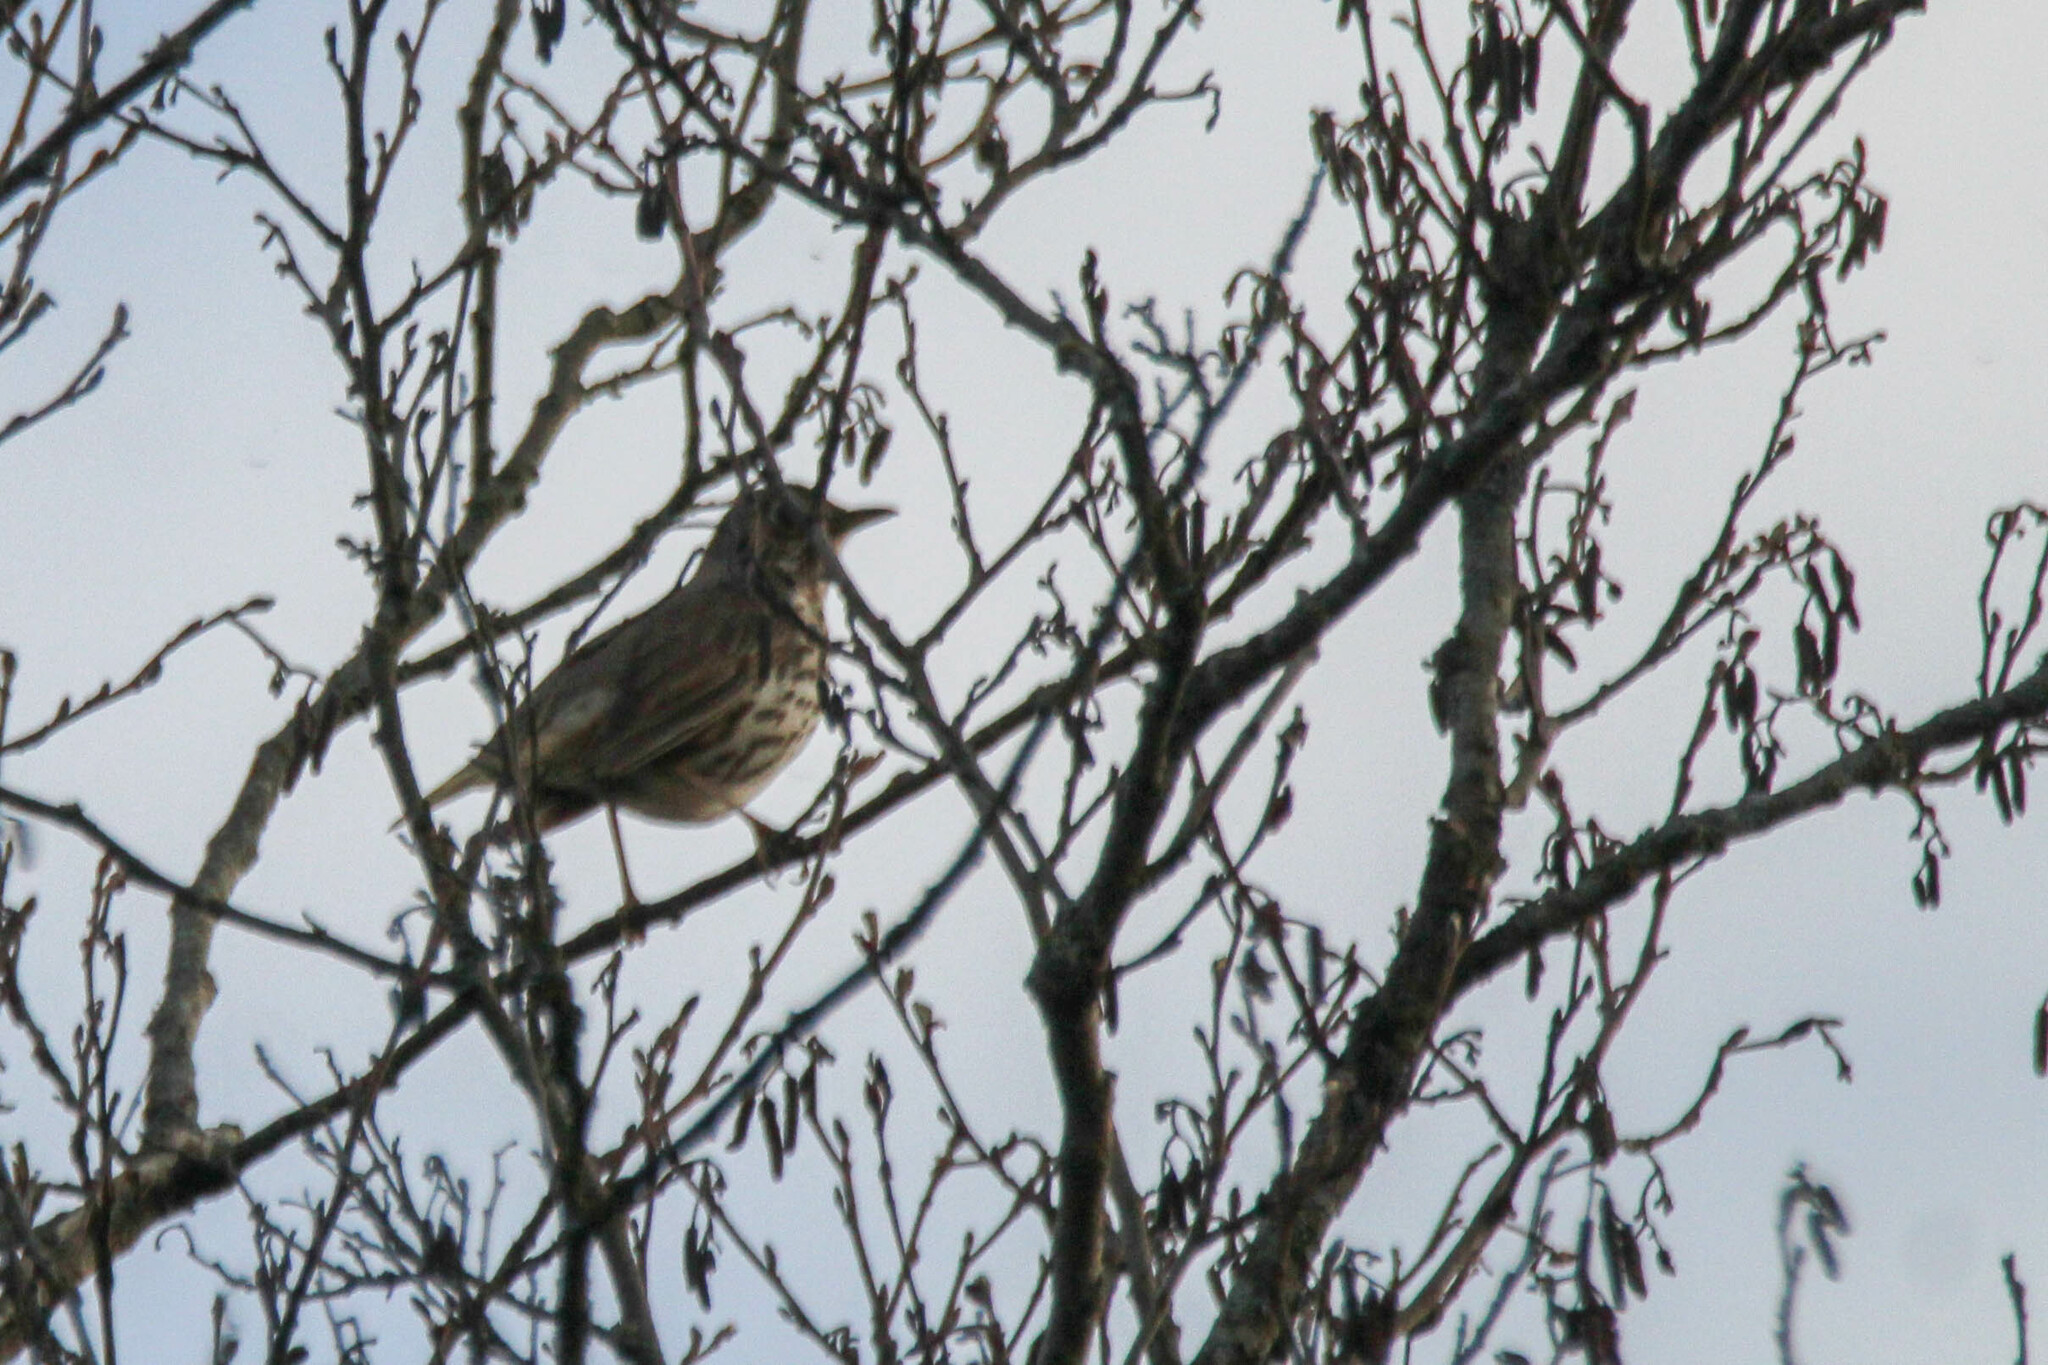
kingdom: Animalia
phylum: Chordata
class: Aves
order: Passeriformes
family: Turdidae
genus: Turdus
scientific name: Turdus philomelos
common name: Song thrush
